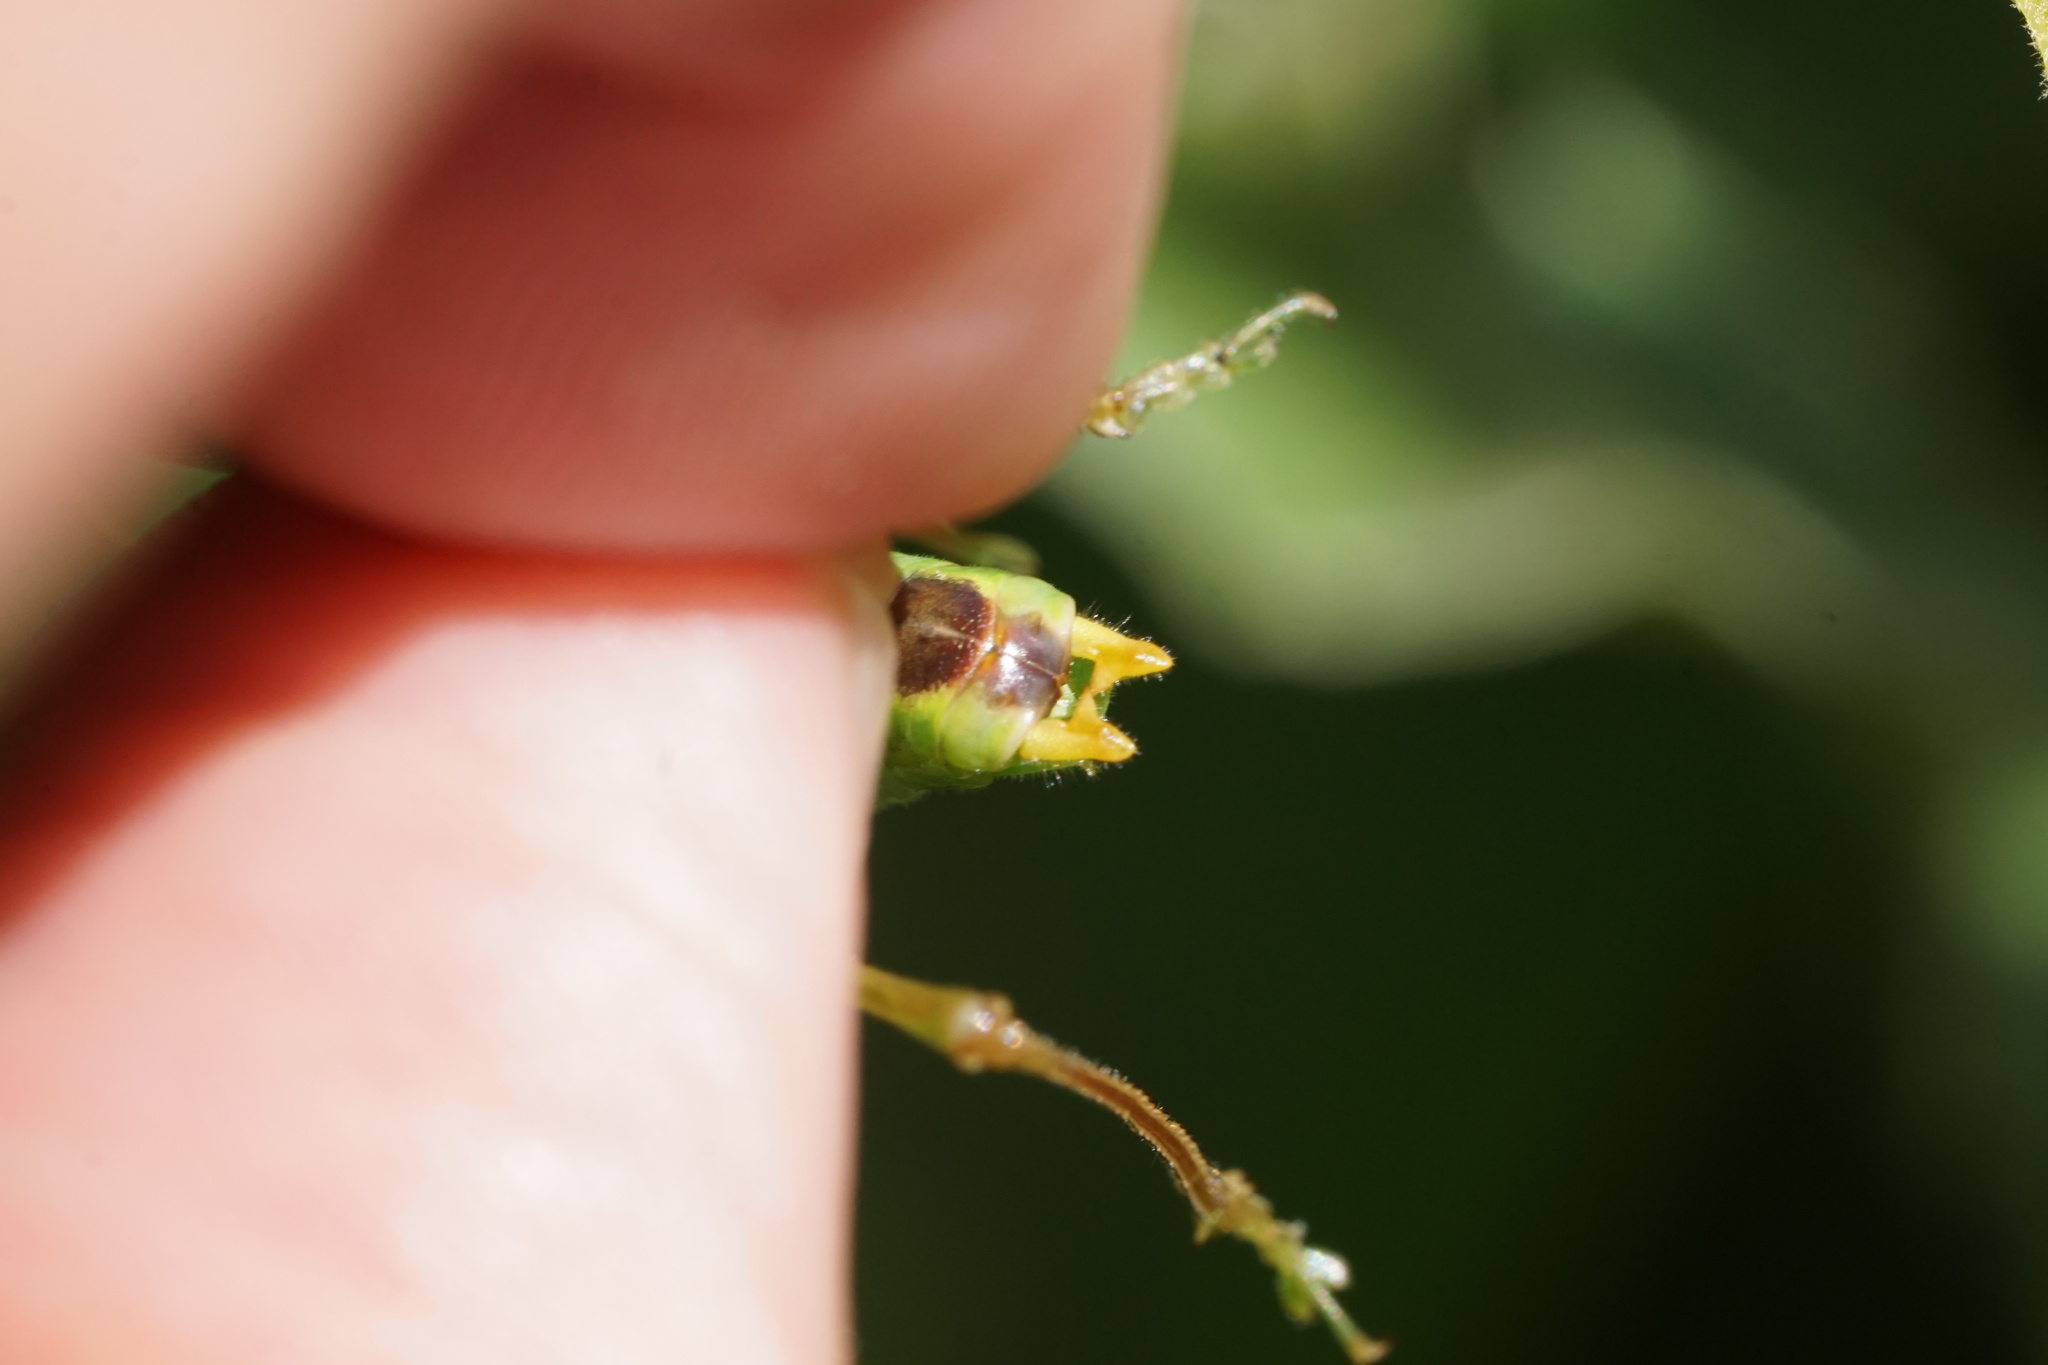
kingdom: Animalia
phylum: Arthropoda
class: Insecta
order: Orthoptera
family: Tettigoniidae
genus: Orchelimum
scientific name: Orchelimum vulgare
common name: Common meadow katydid
